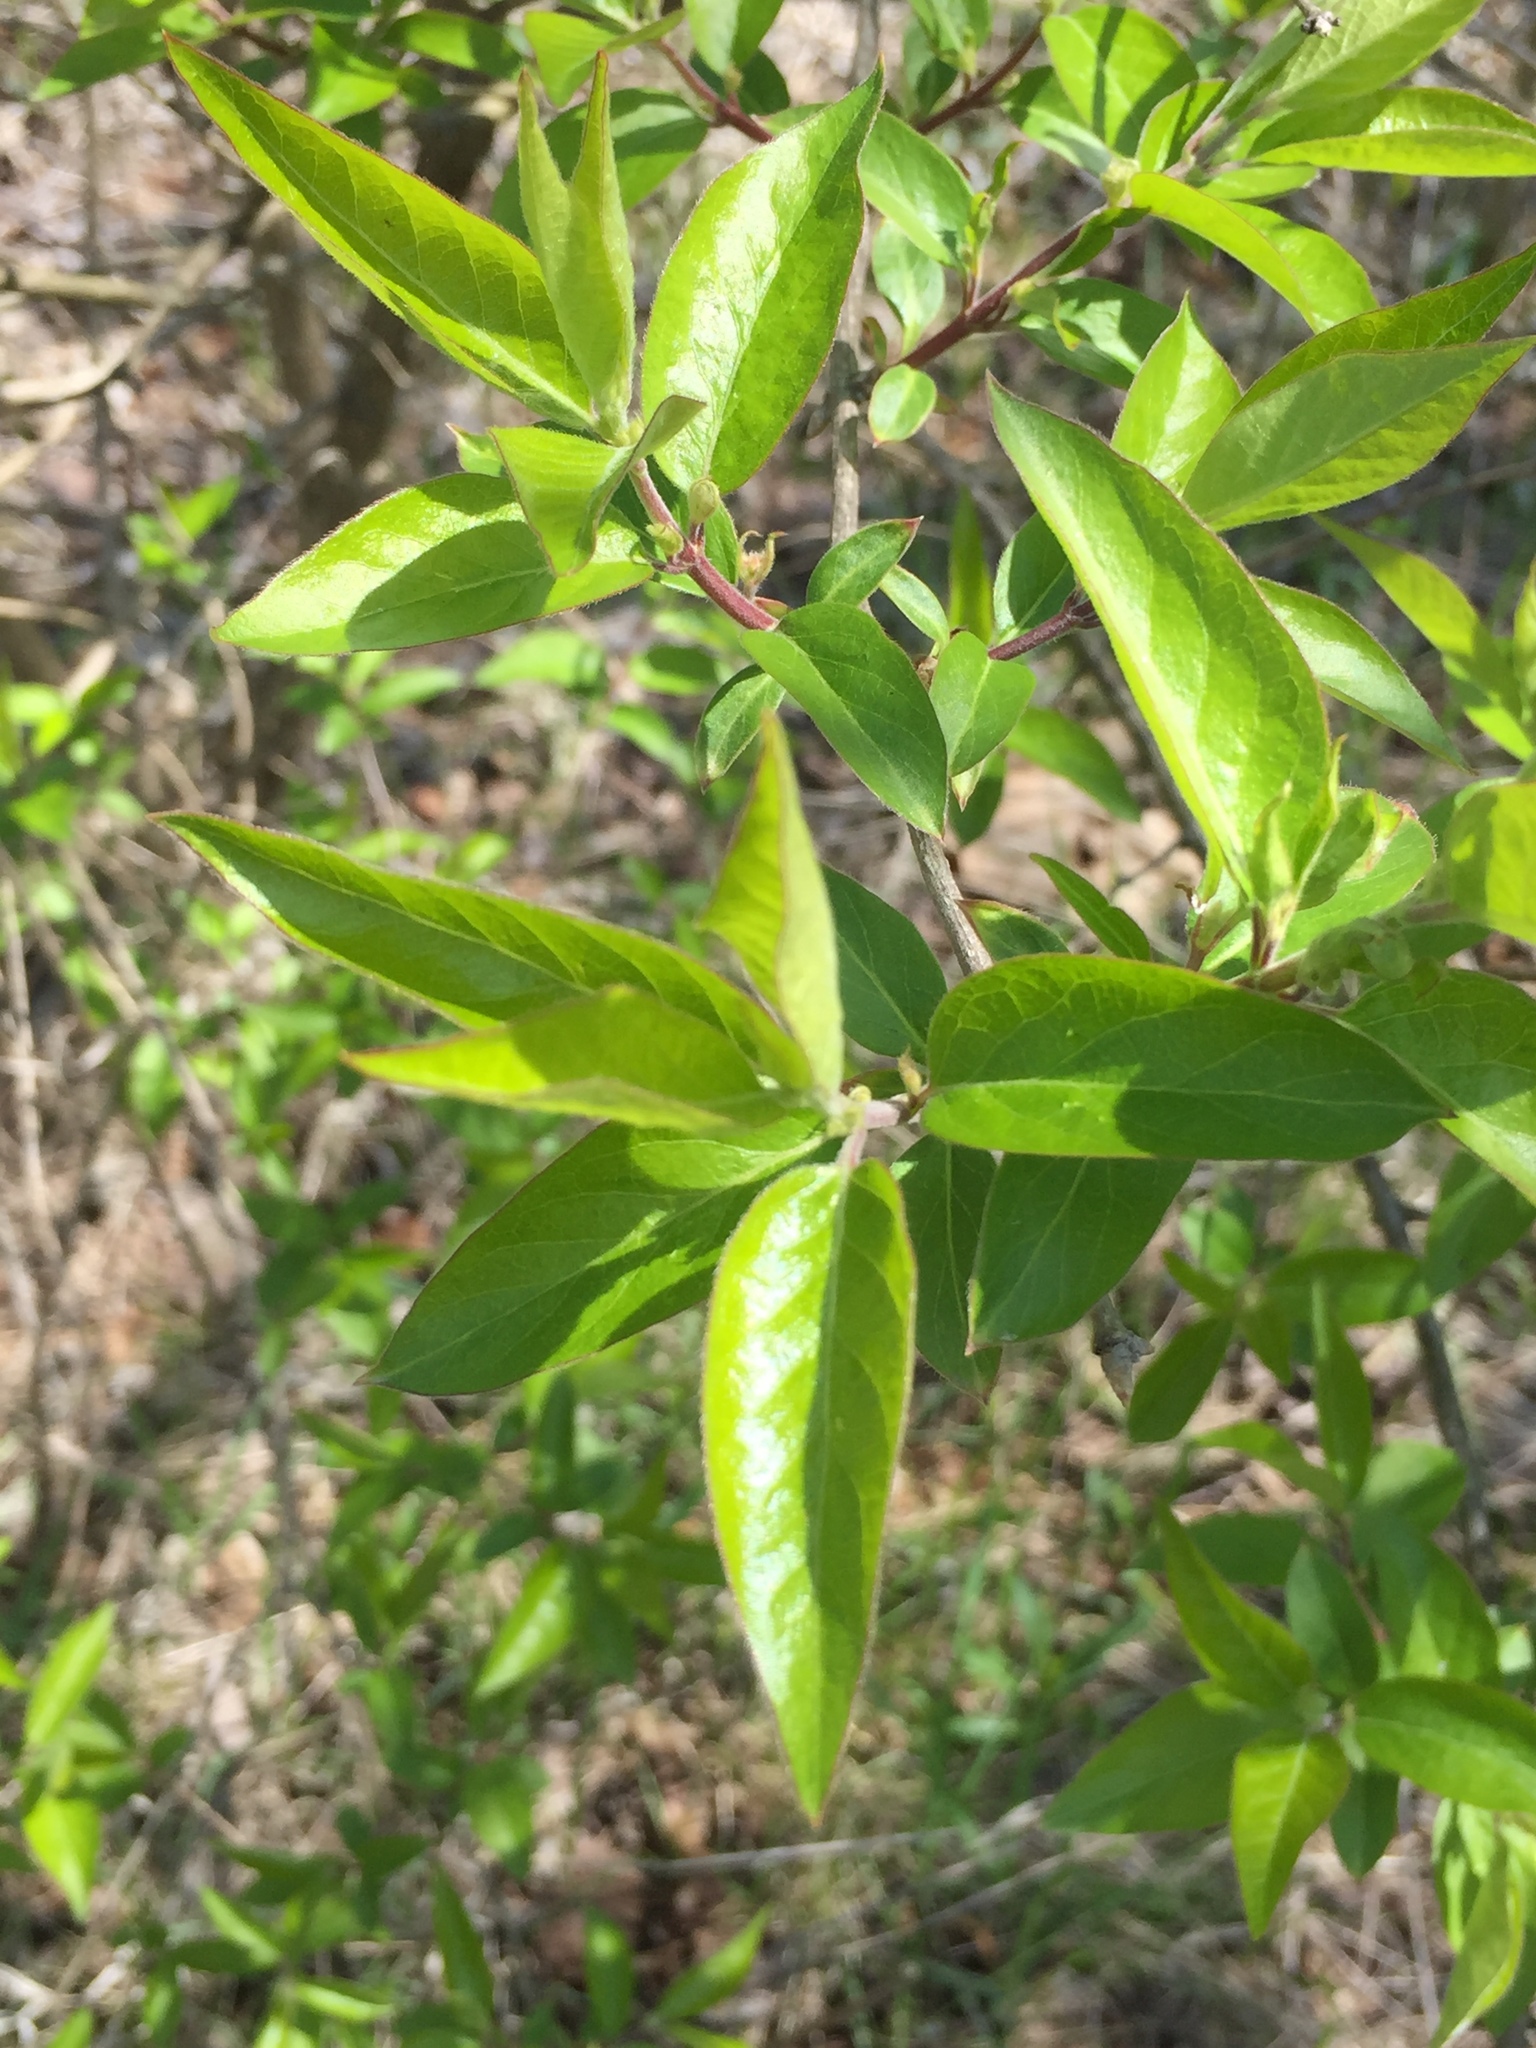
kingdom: Plantae
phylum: Tracheophyta
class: Magnoliopsida
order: Dipsacales
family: Caprifoliaceae
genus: Lonicera
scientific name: Lonicera maackii
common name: Amur honeysuckle
